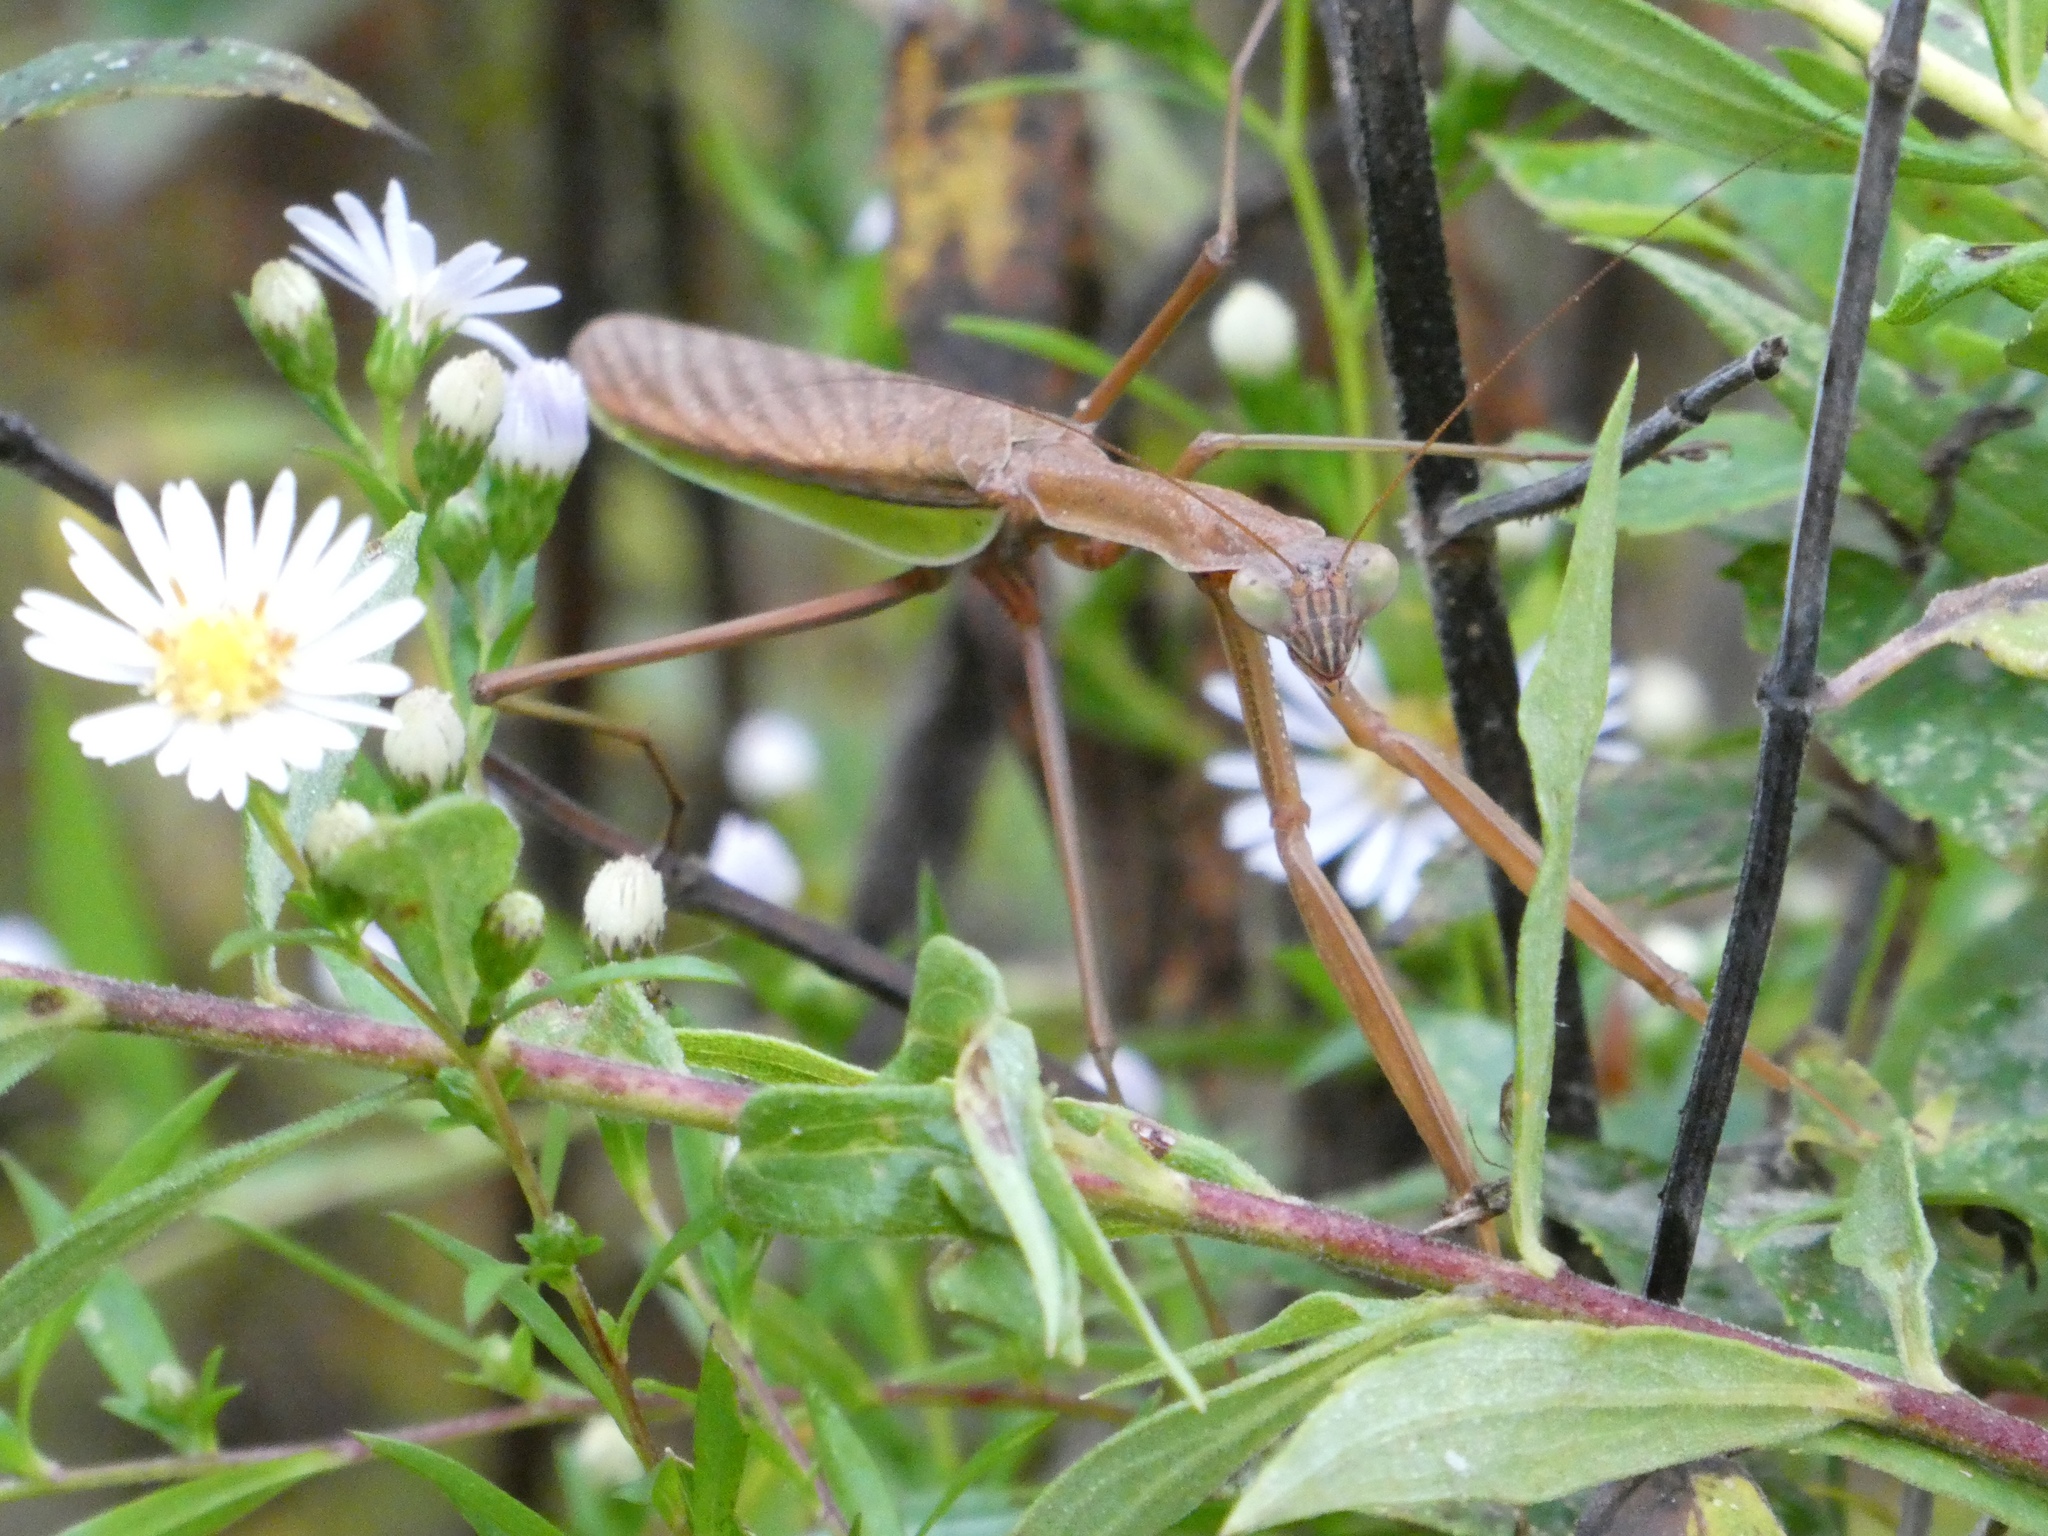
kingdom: Animalia
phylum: Arthropoda
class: Insecta
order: Mantodea
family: Mantidae
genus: Tenodera
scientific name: Tenodera sinensis
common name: Chinese mantis
